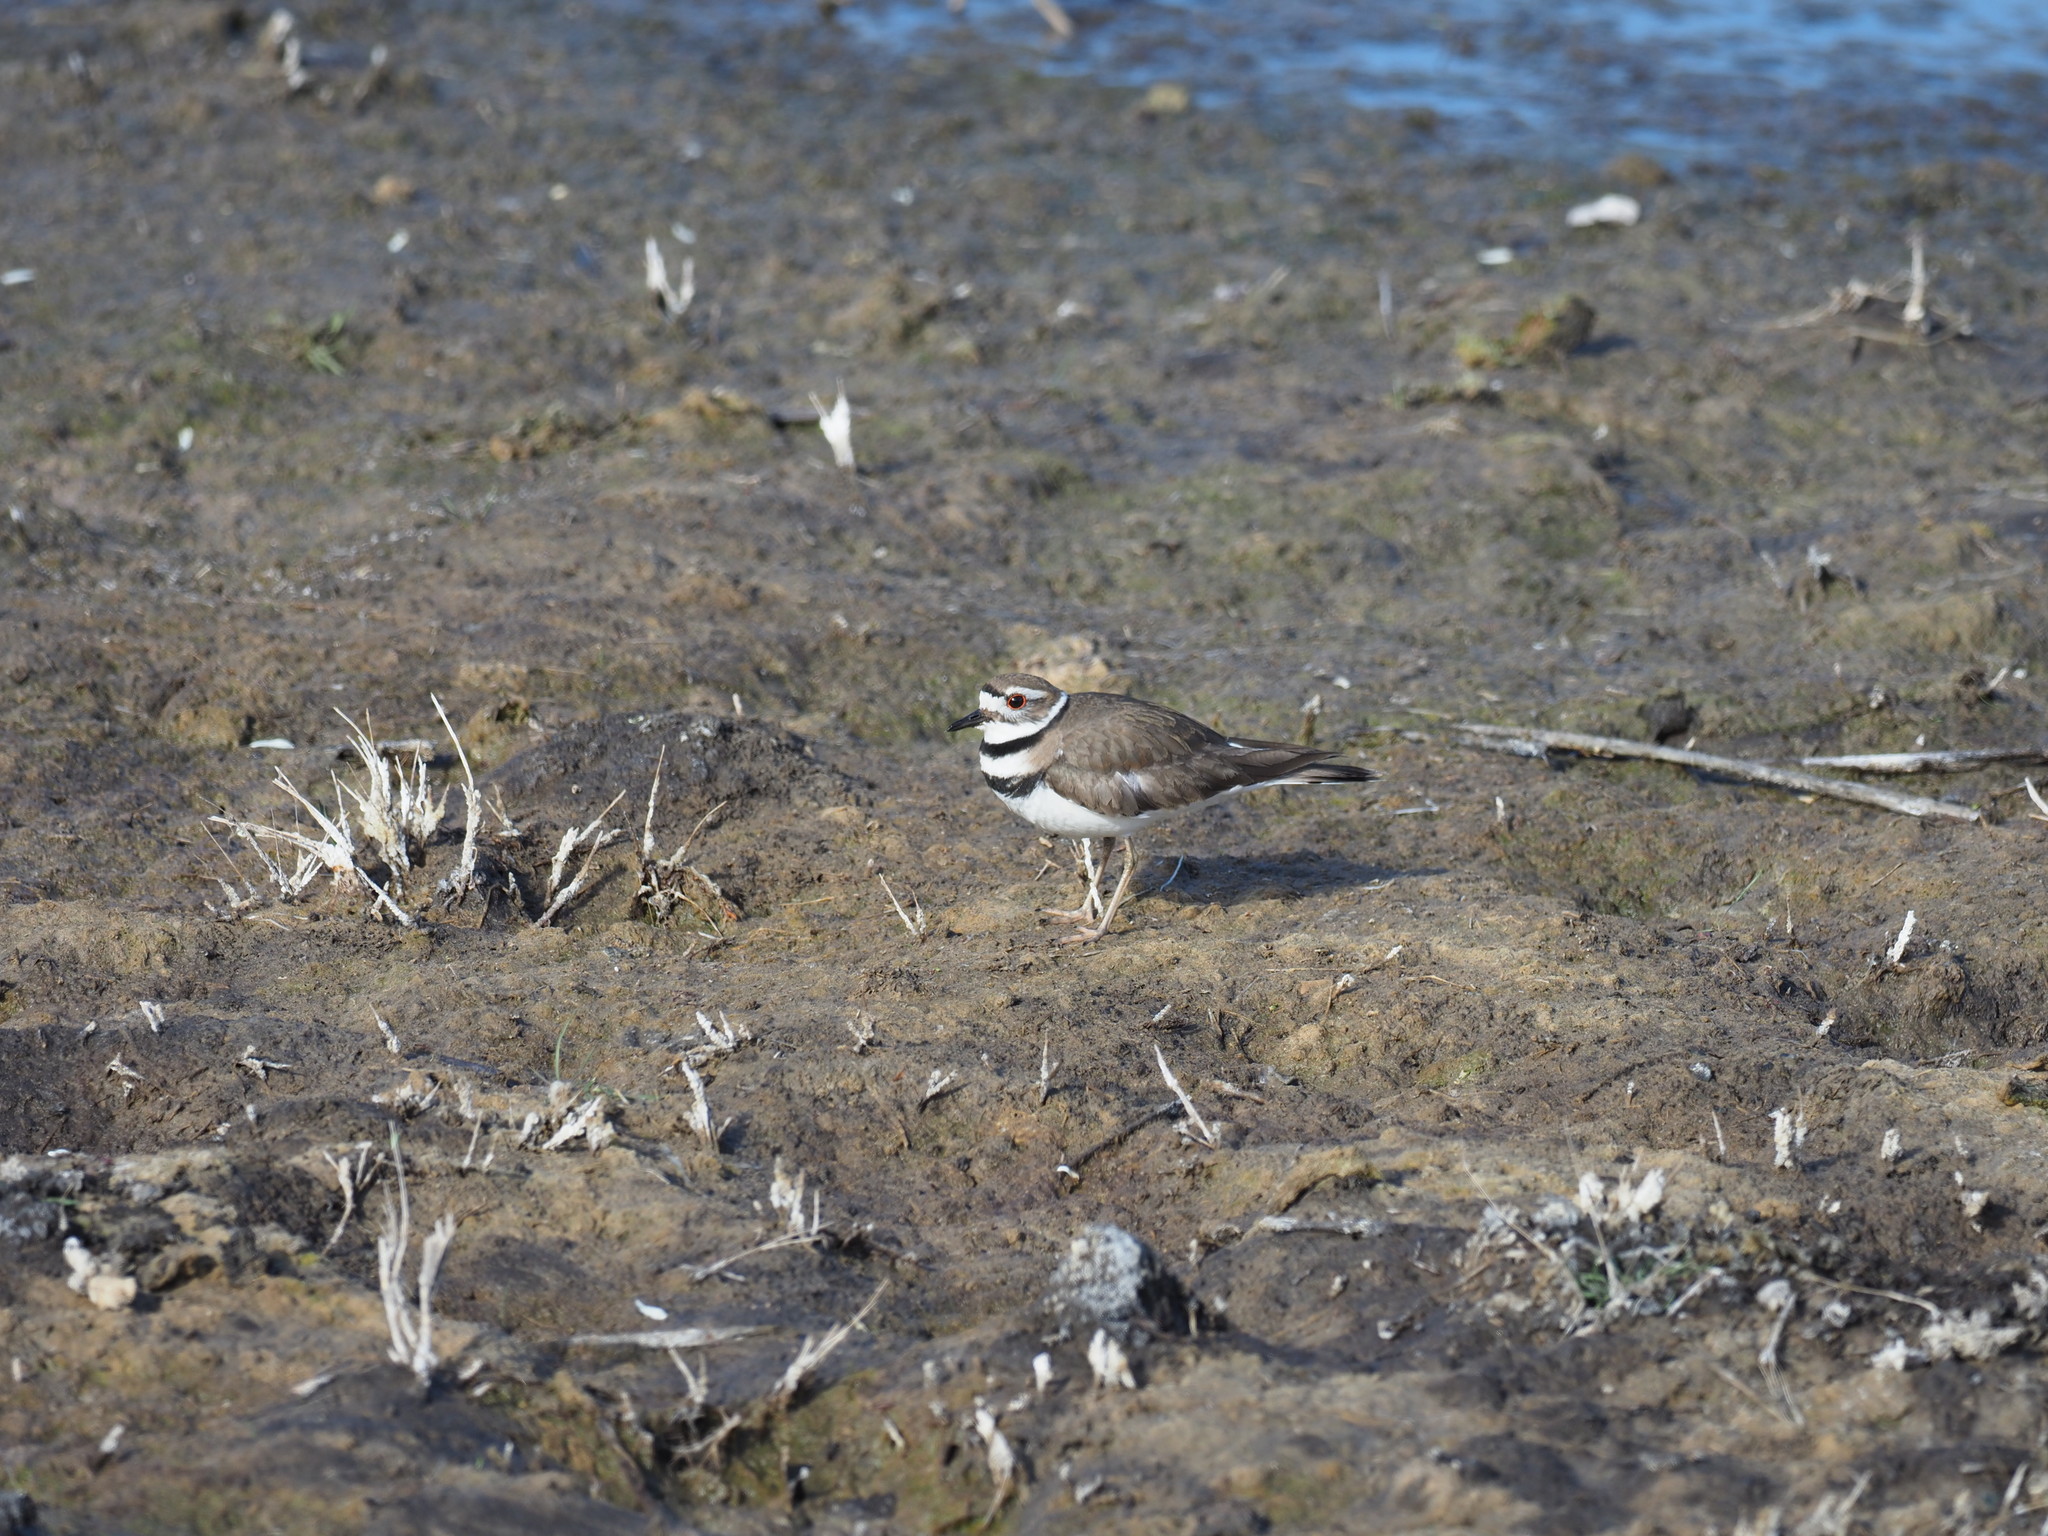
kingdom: Animalia
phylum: Chordata
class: Aves
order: Charadriiformes
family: Charadriidae
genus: Charadrius
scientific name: Charadrius vociferus
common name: Killdeer
